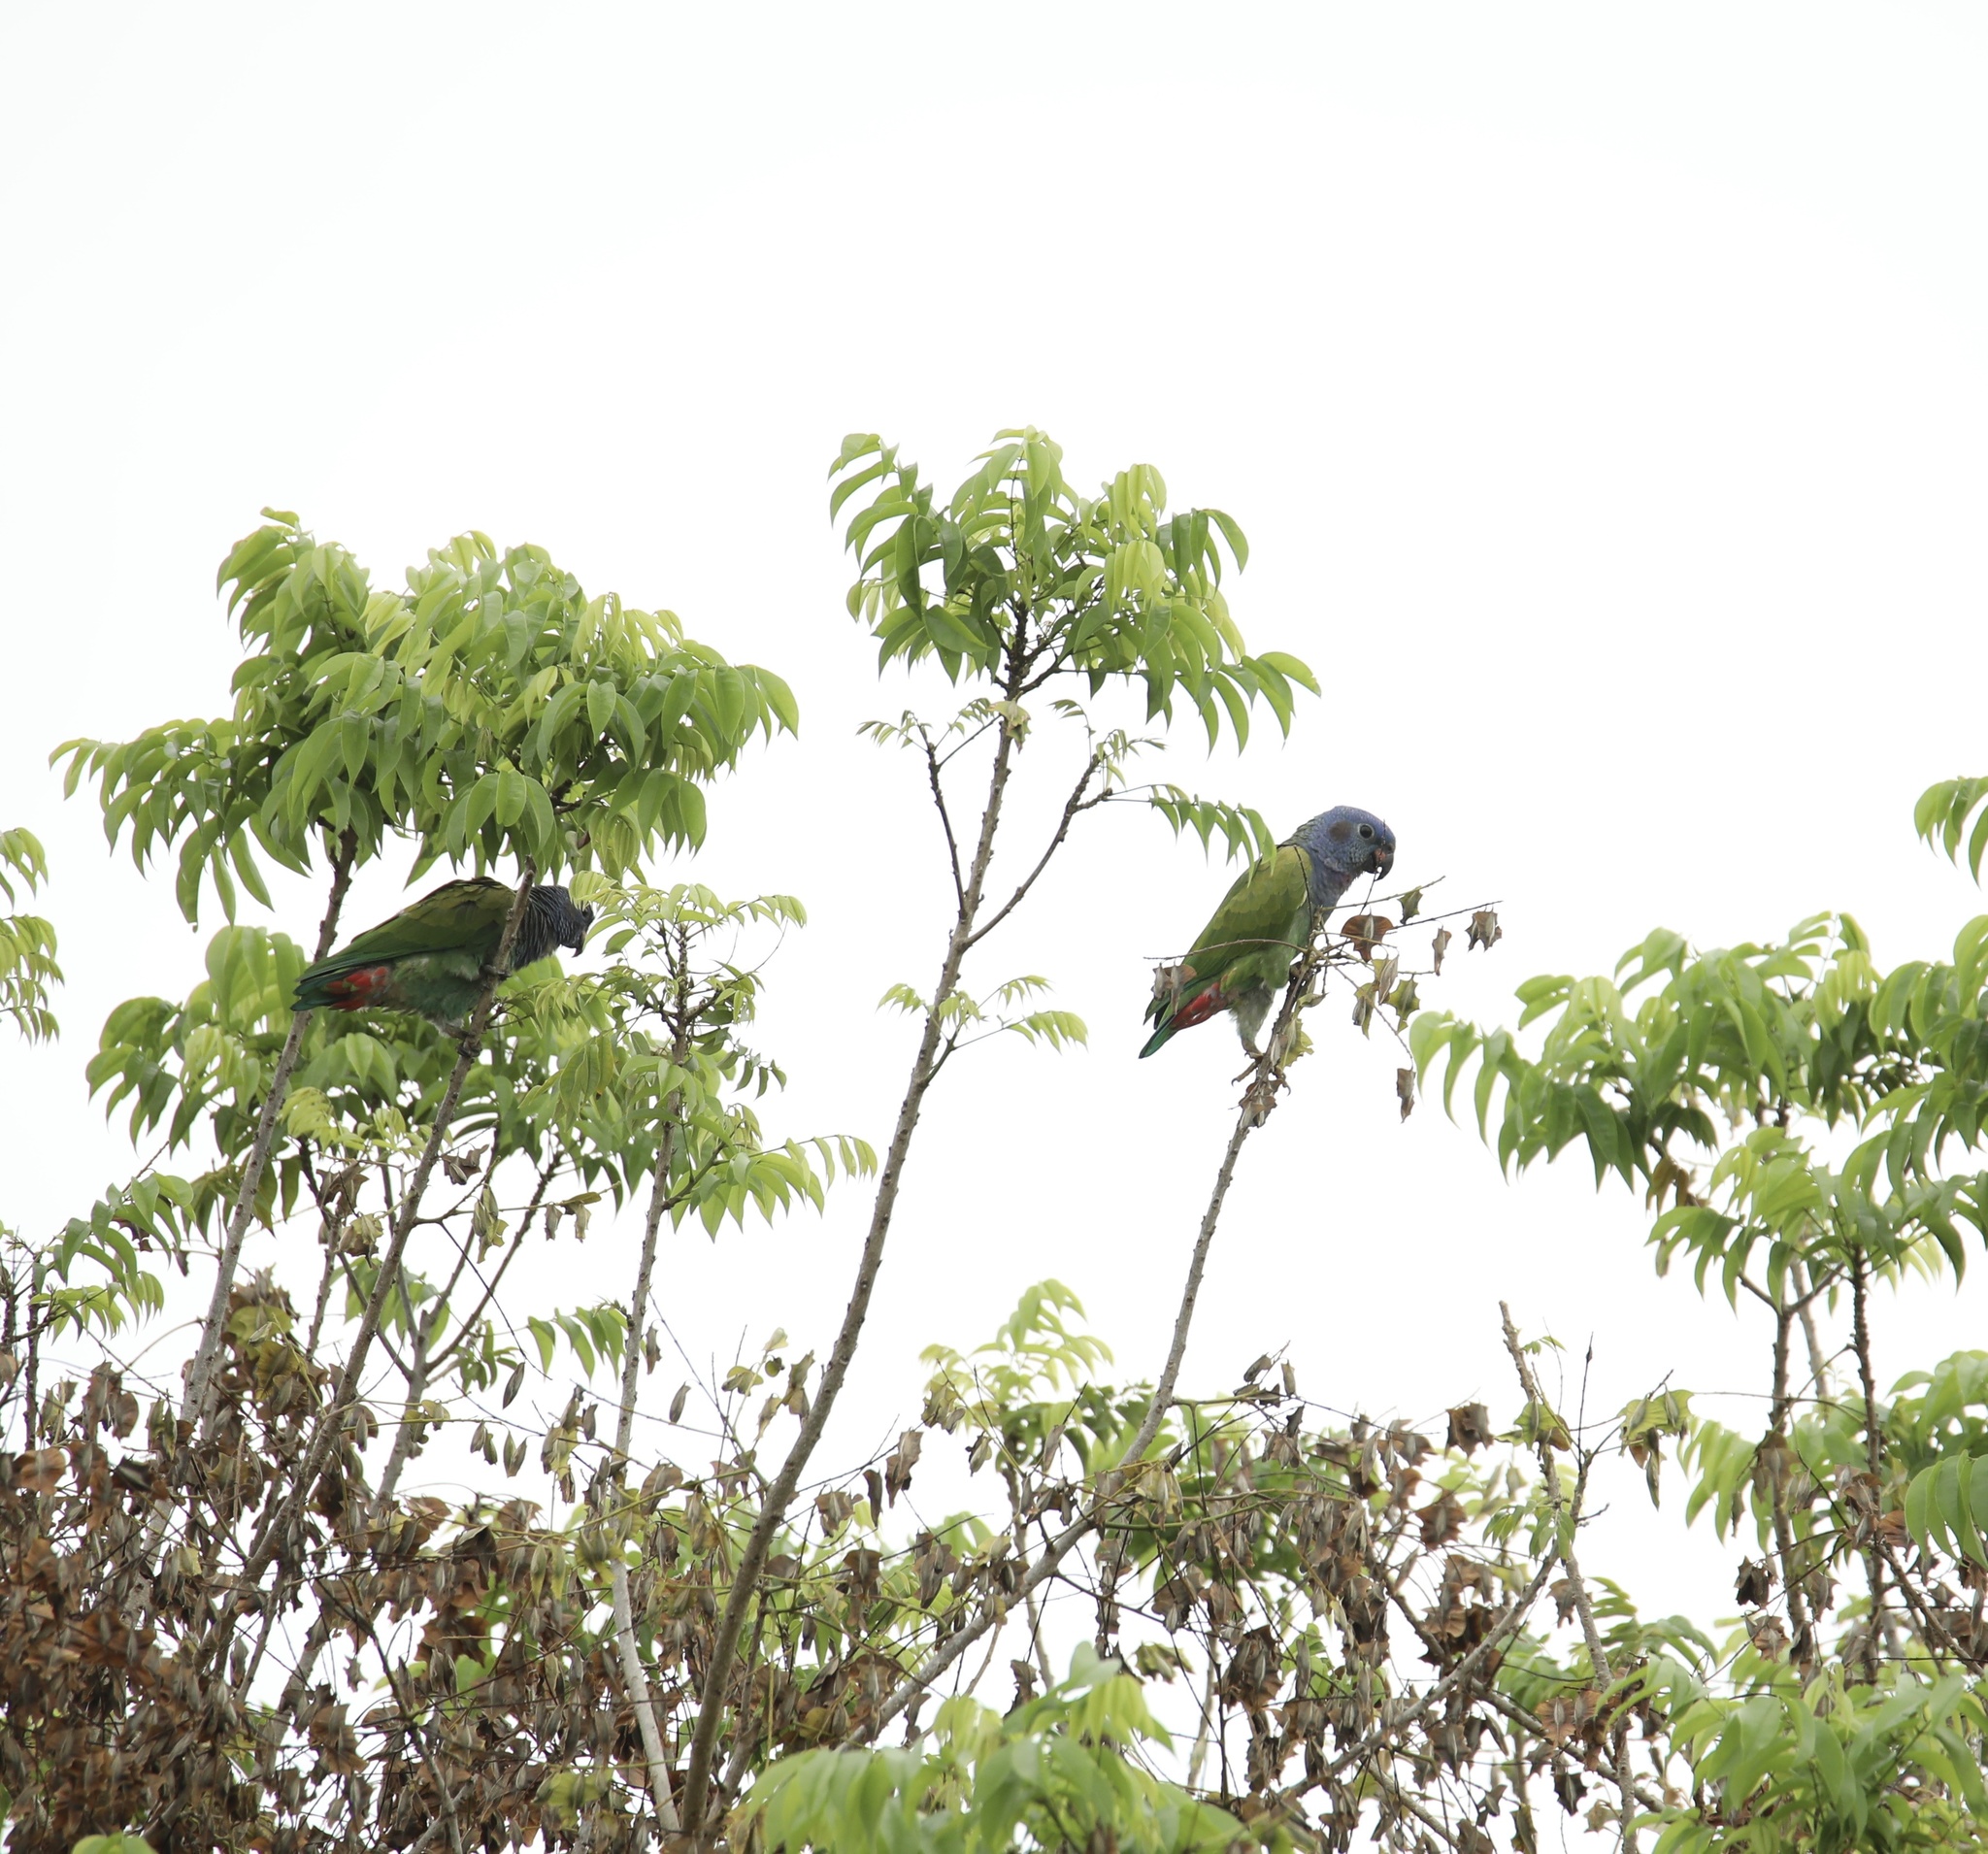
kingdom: Animalia
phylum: Chordata
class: Aves
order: Psittaciformes
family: Psittacidae
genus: Pionus
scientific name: Pionus menstruus
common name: Blue-headed parrot
